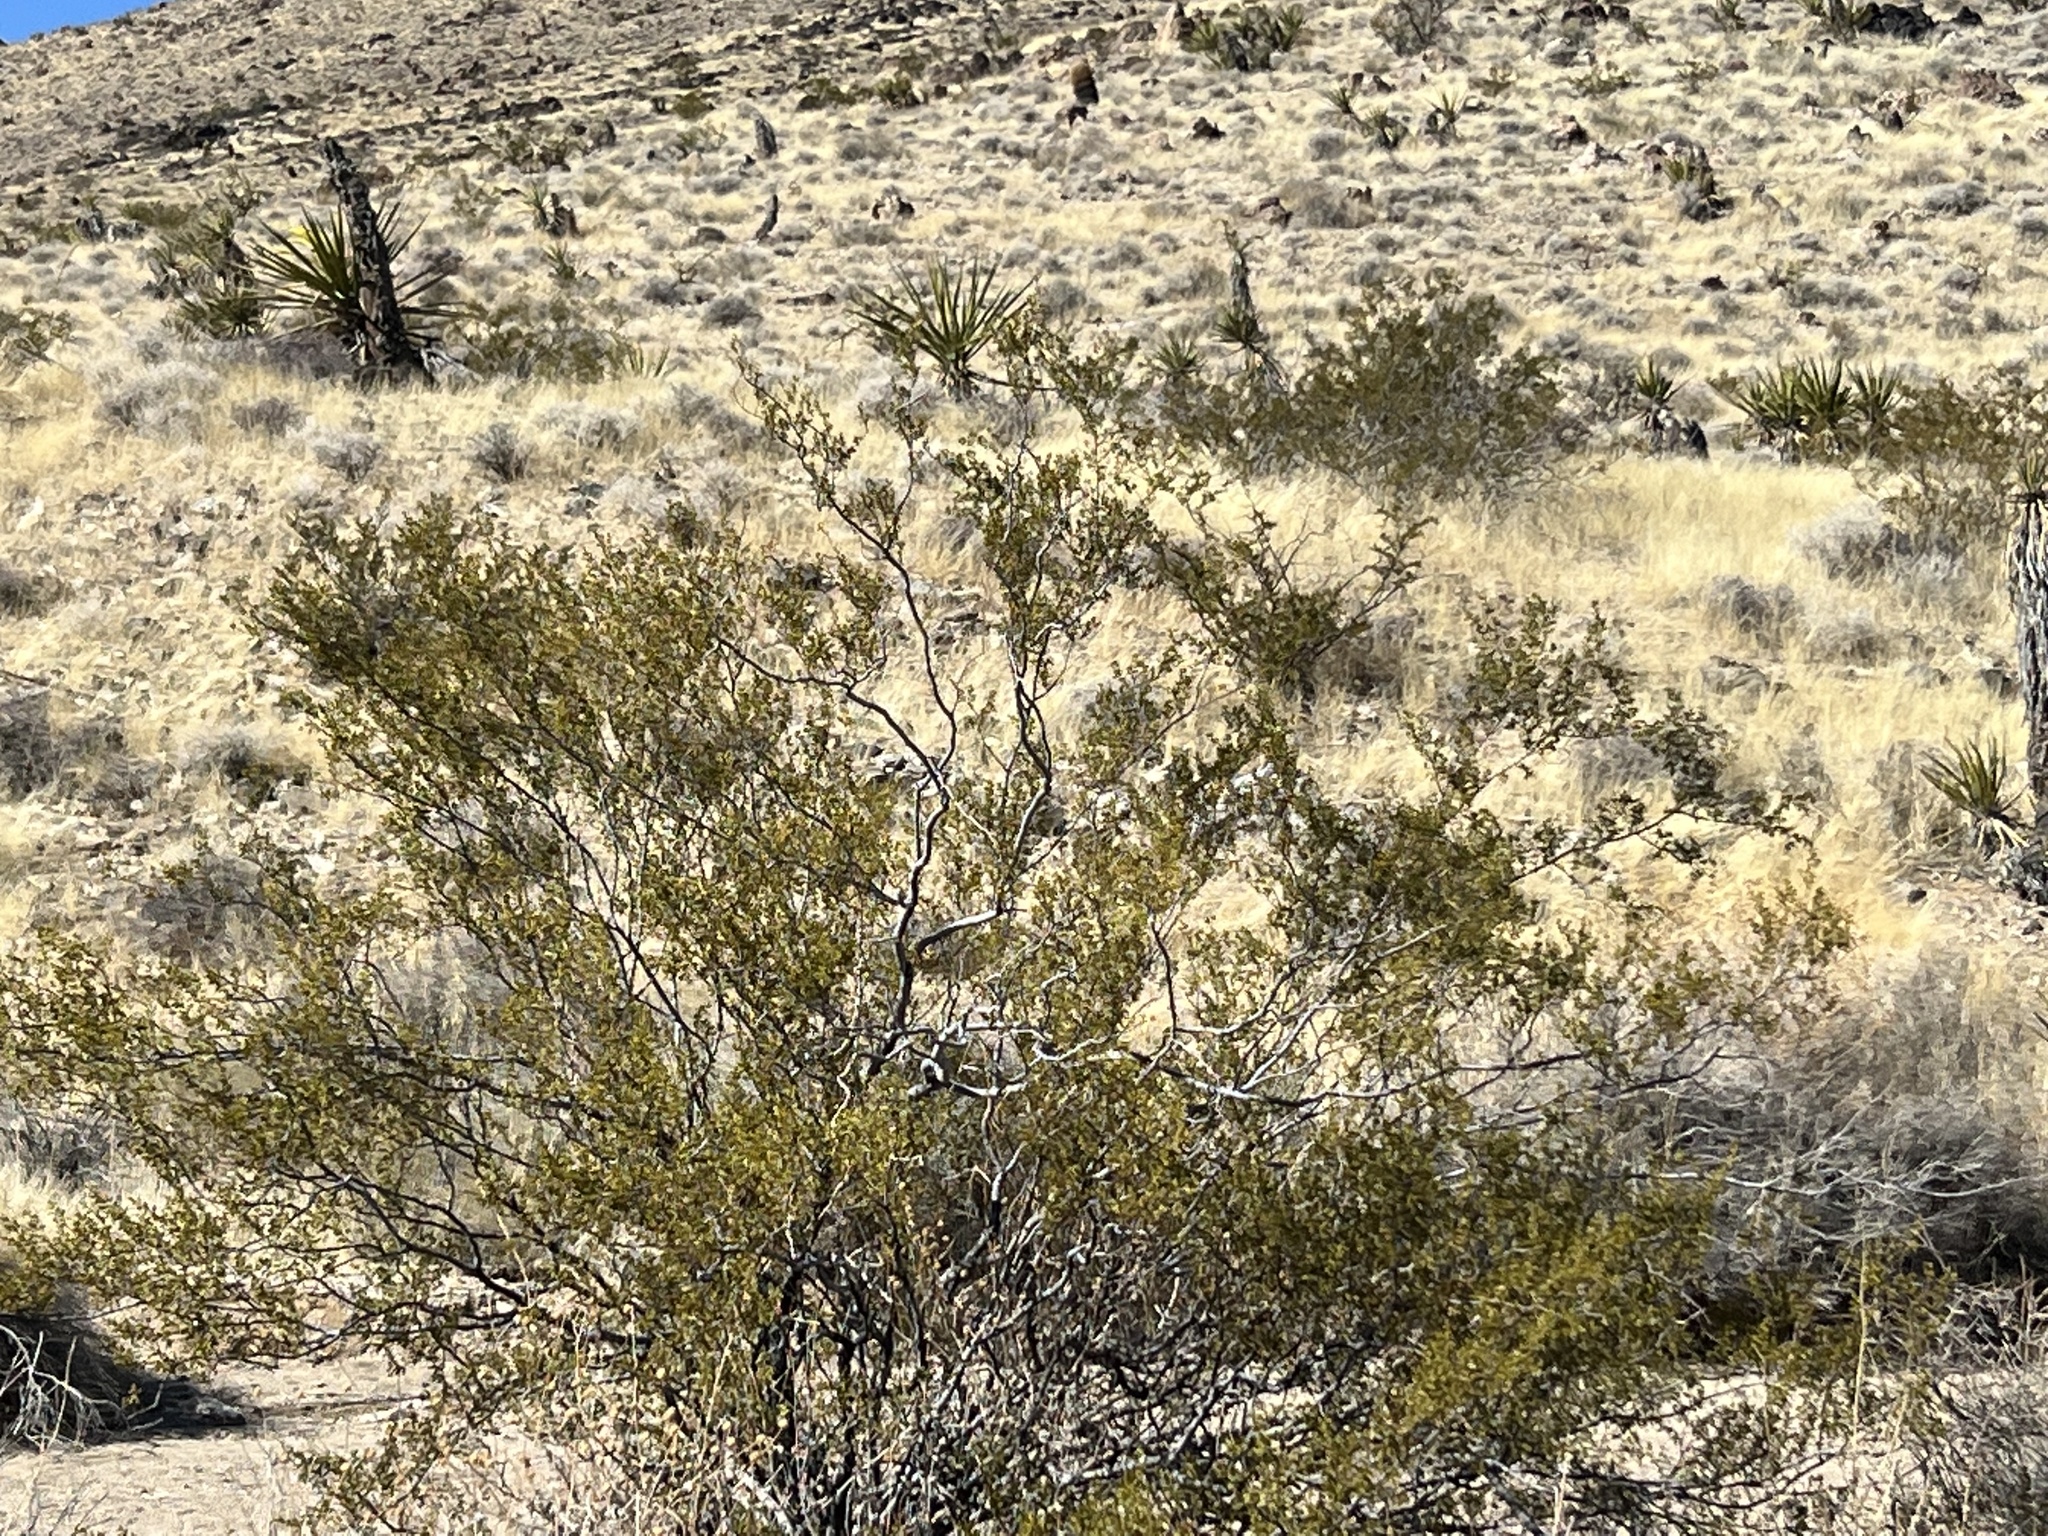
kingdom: Plantae
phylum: Tracheophyta
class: Magnoliopsida
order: Zygophyllales
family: Zygophyllaceae
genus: Larrea
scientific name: Larrea tridentata
